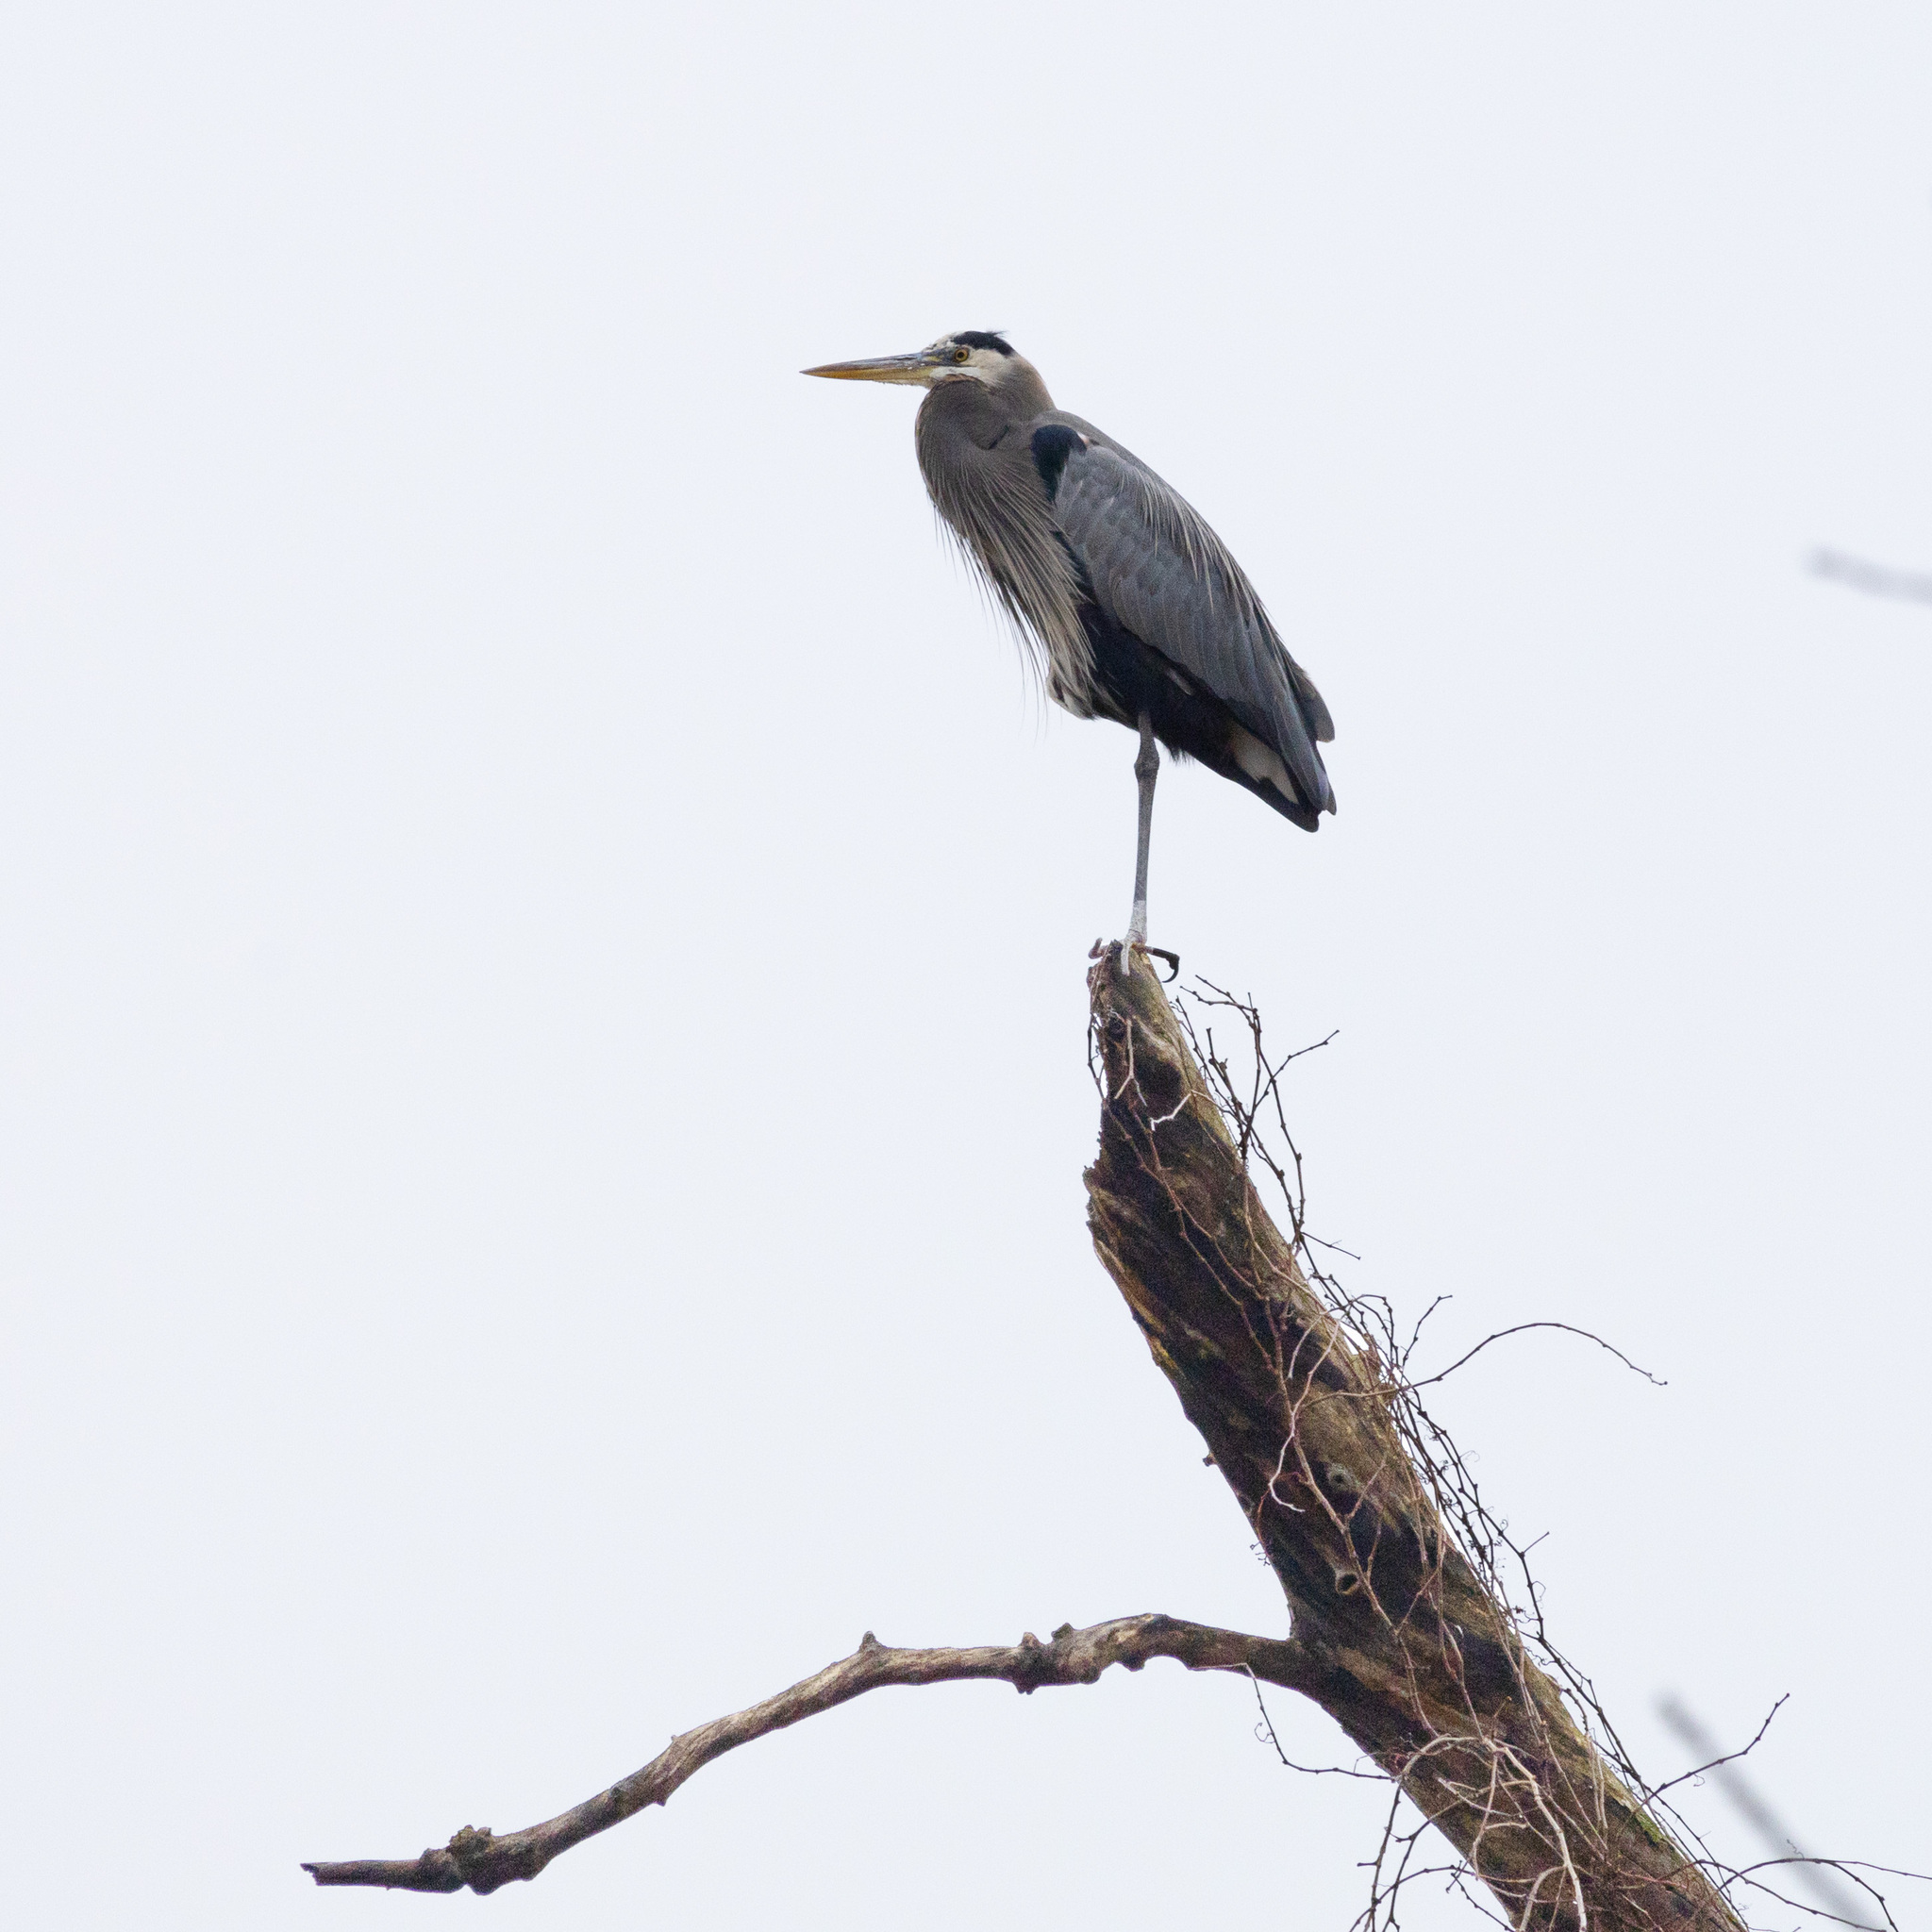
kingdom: Animalia
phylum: Chordata
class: Aves
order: Pelecaniformes
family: Ardeidae
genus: Ardea
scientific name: Ardea herodias
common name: Great blue heron
